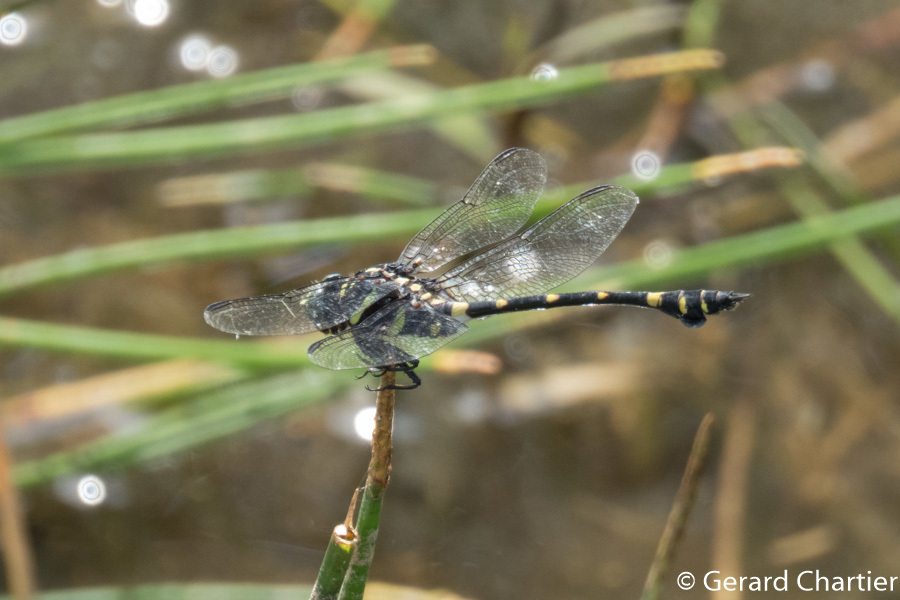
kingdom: Animalia
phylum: Arthropoda
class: Insecta
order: Odonata
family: Gomphidae
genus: Ictinogomphus
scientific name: Ictinogomphus decoratus
